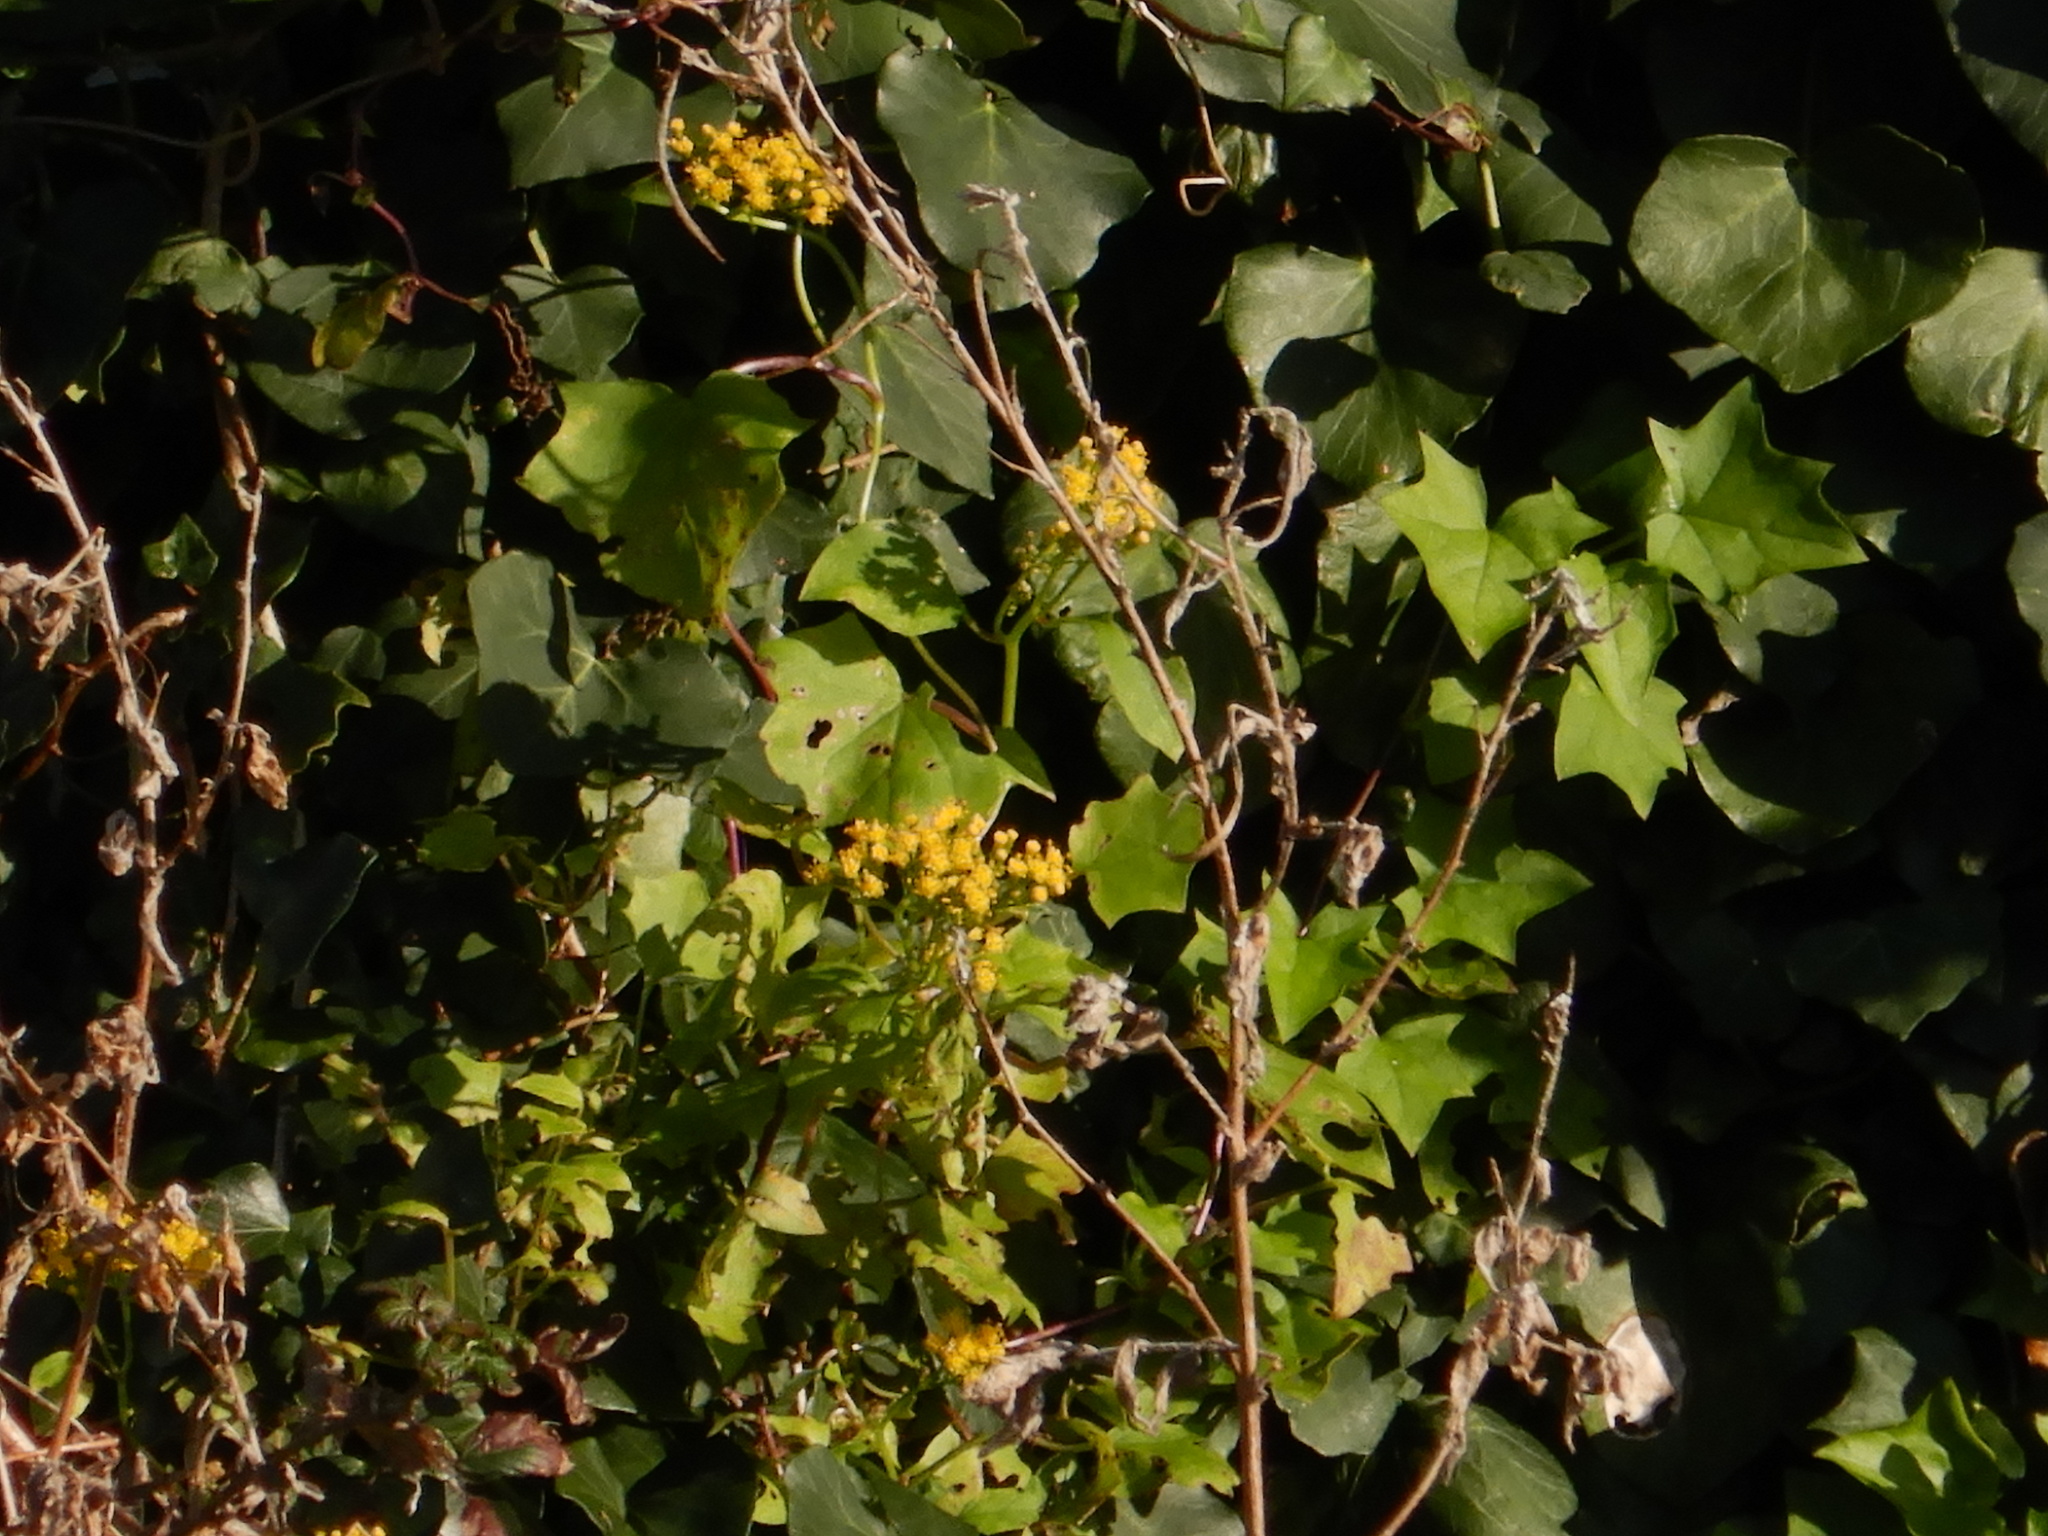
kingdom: Plantae
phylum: Tracheophyta
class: Magnoliopsida
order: Asterales
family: Asteraceae
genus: Delairea
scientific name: Delairea odorata
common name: Cape-ivy
